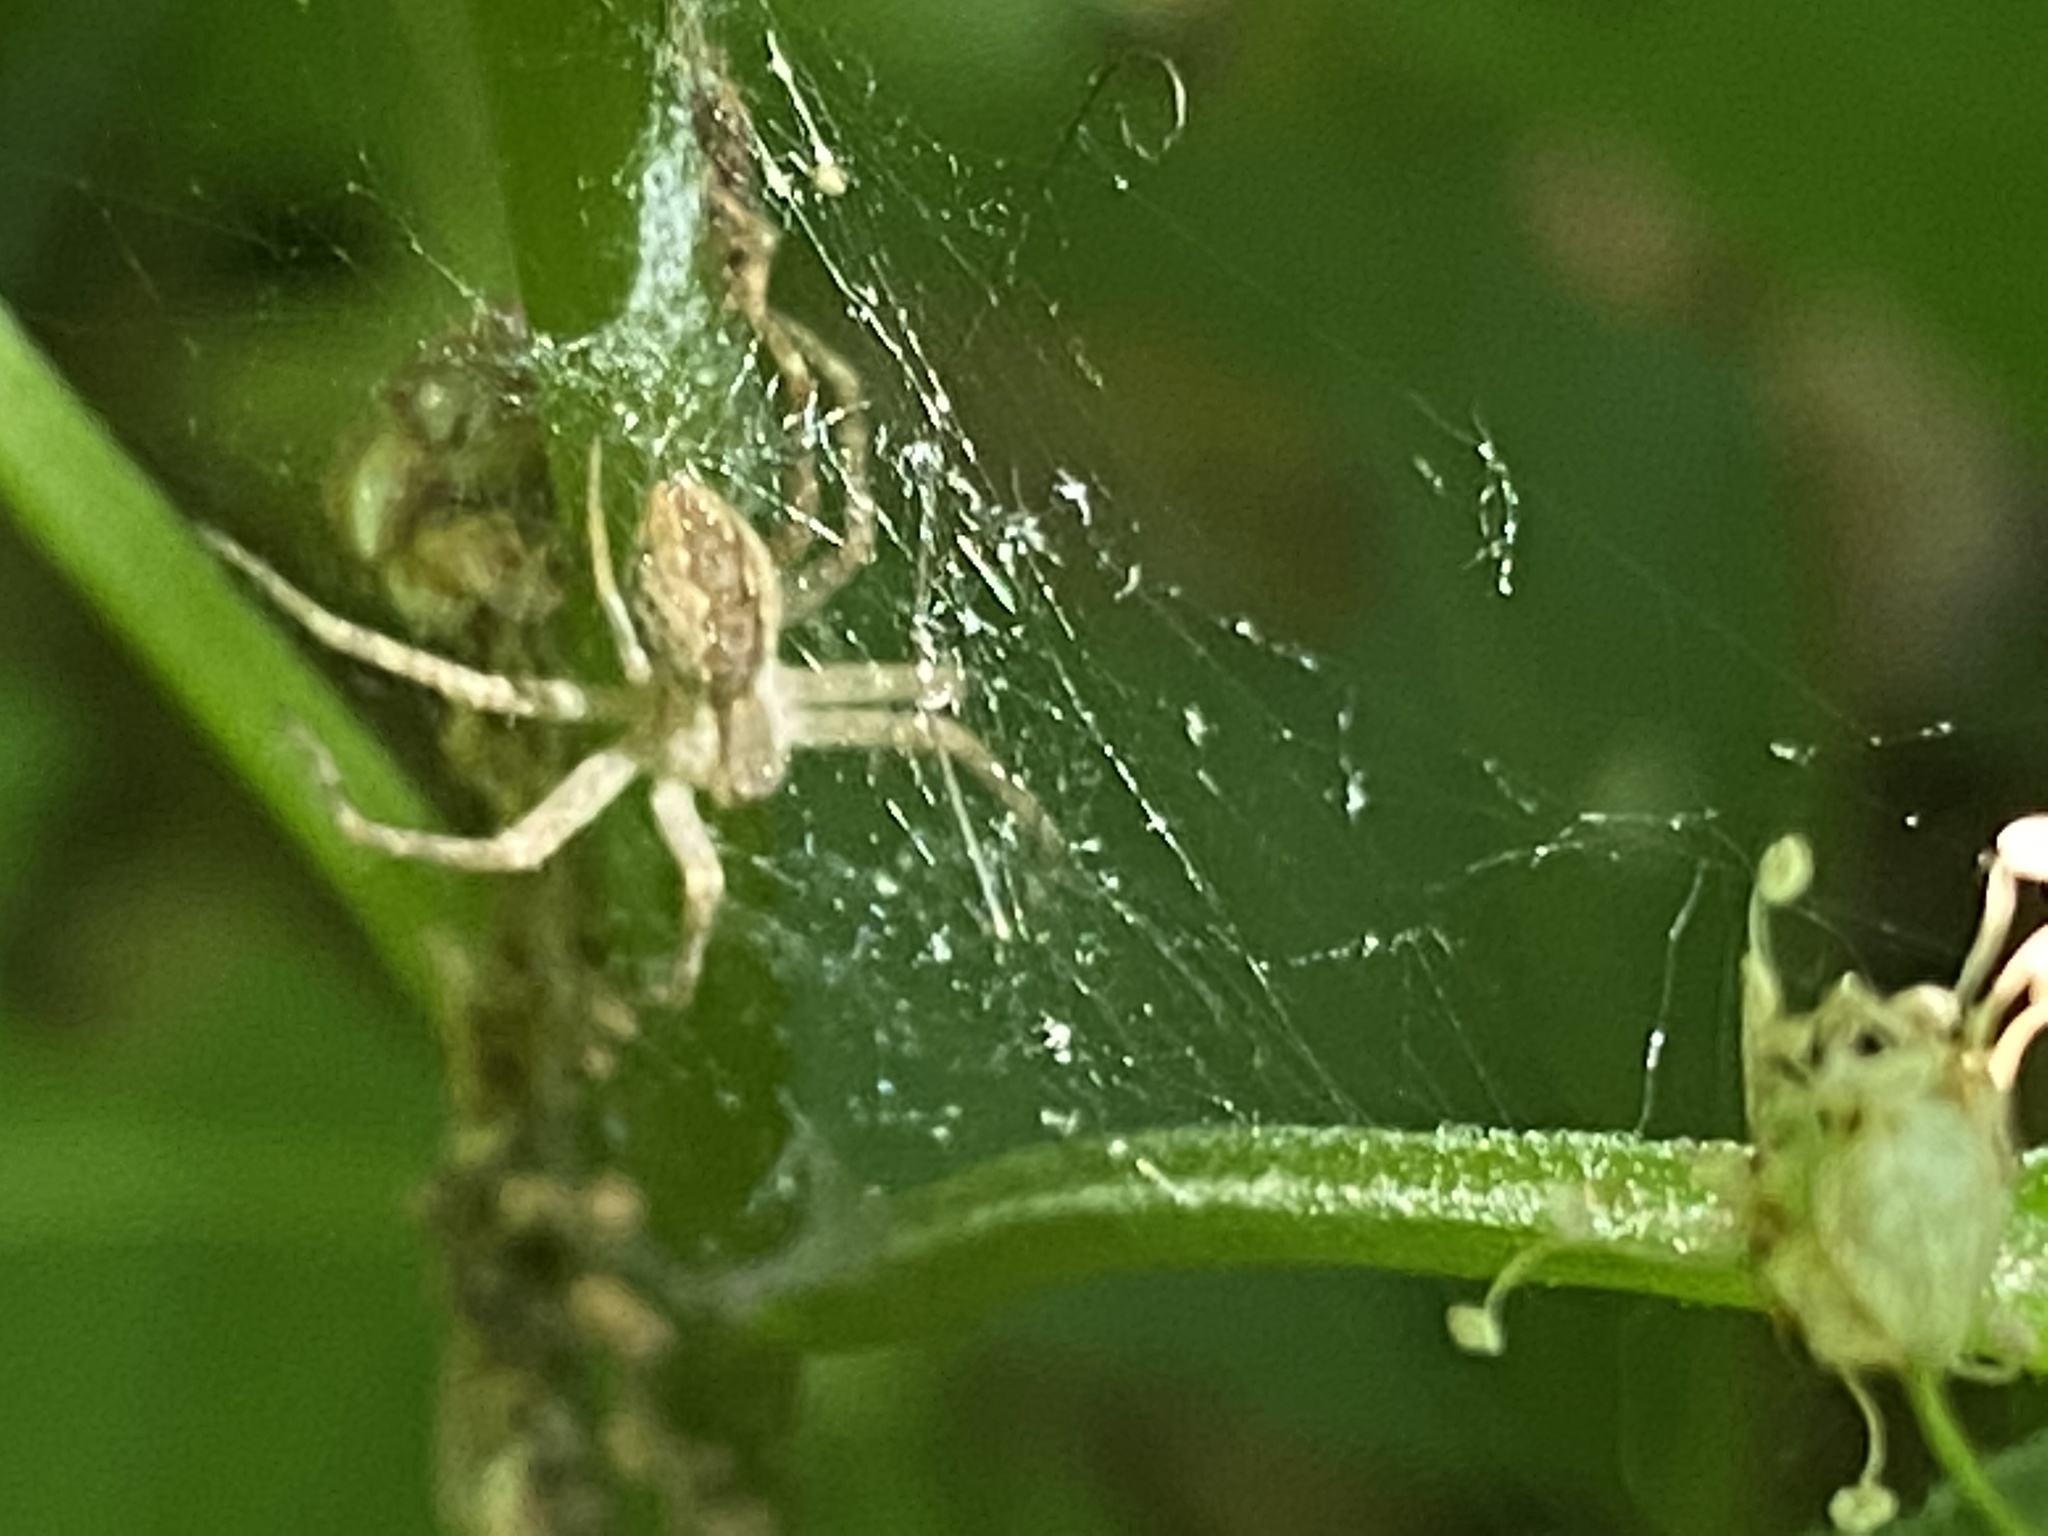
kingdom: Animalia
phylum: Arthropoda
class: Arachnida
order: Araneae
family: Pisauridae
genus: Pisaurina
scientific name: Pisaurina mira
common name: American nursery web spider
